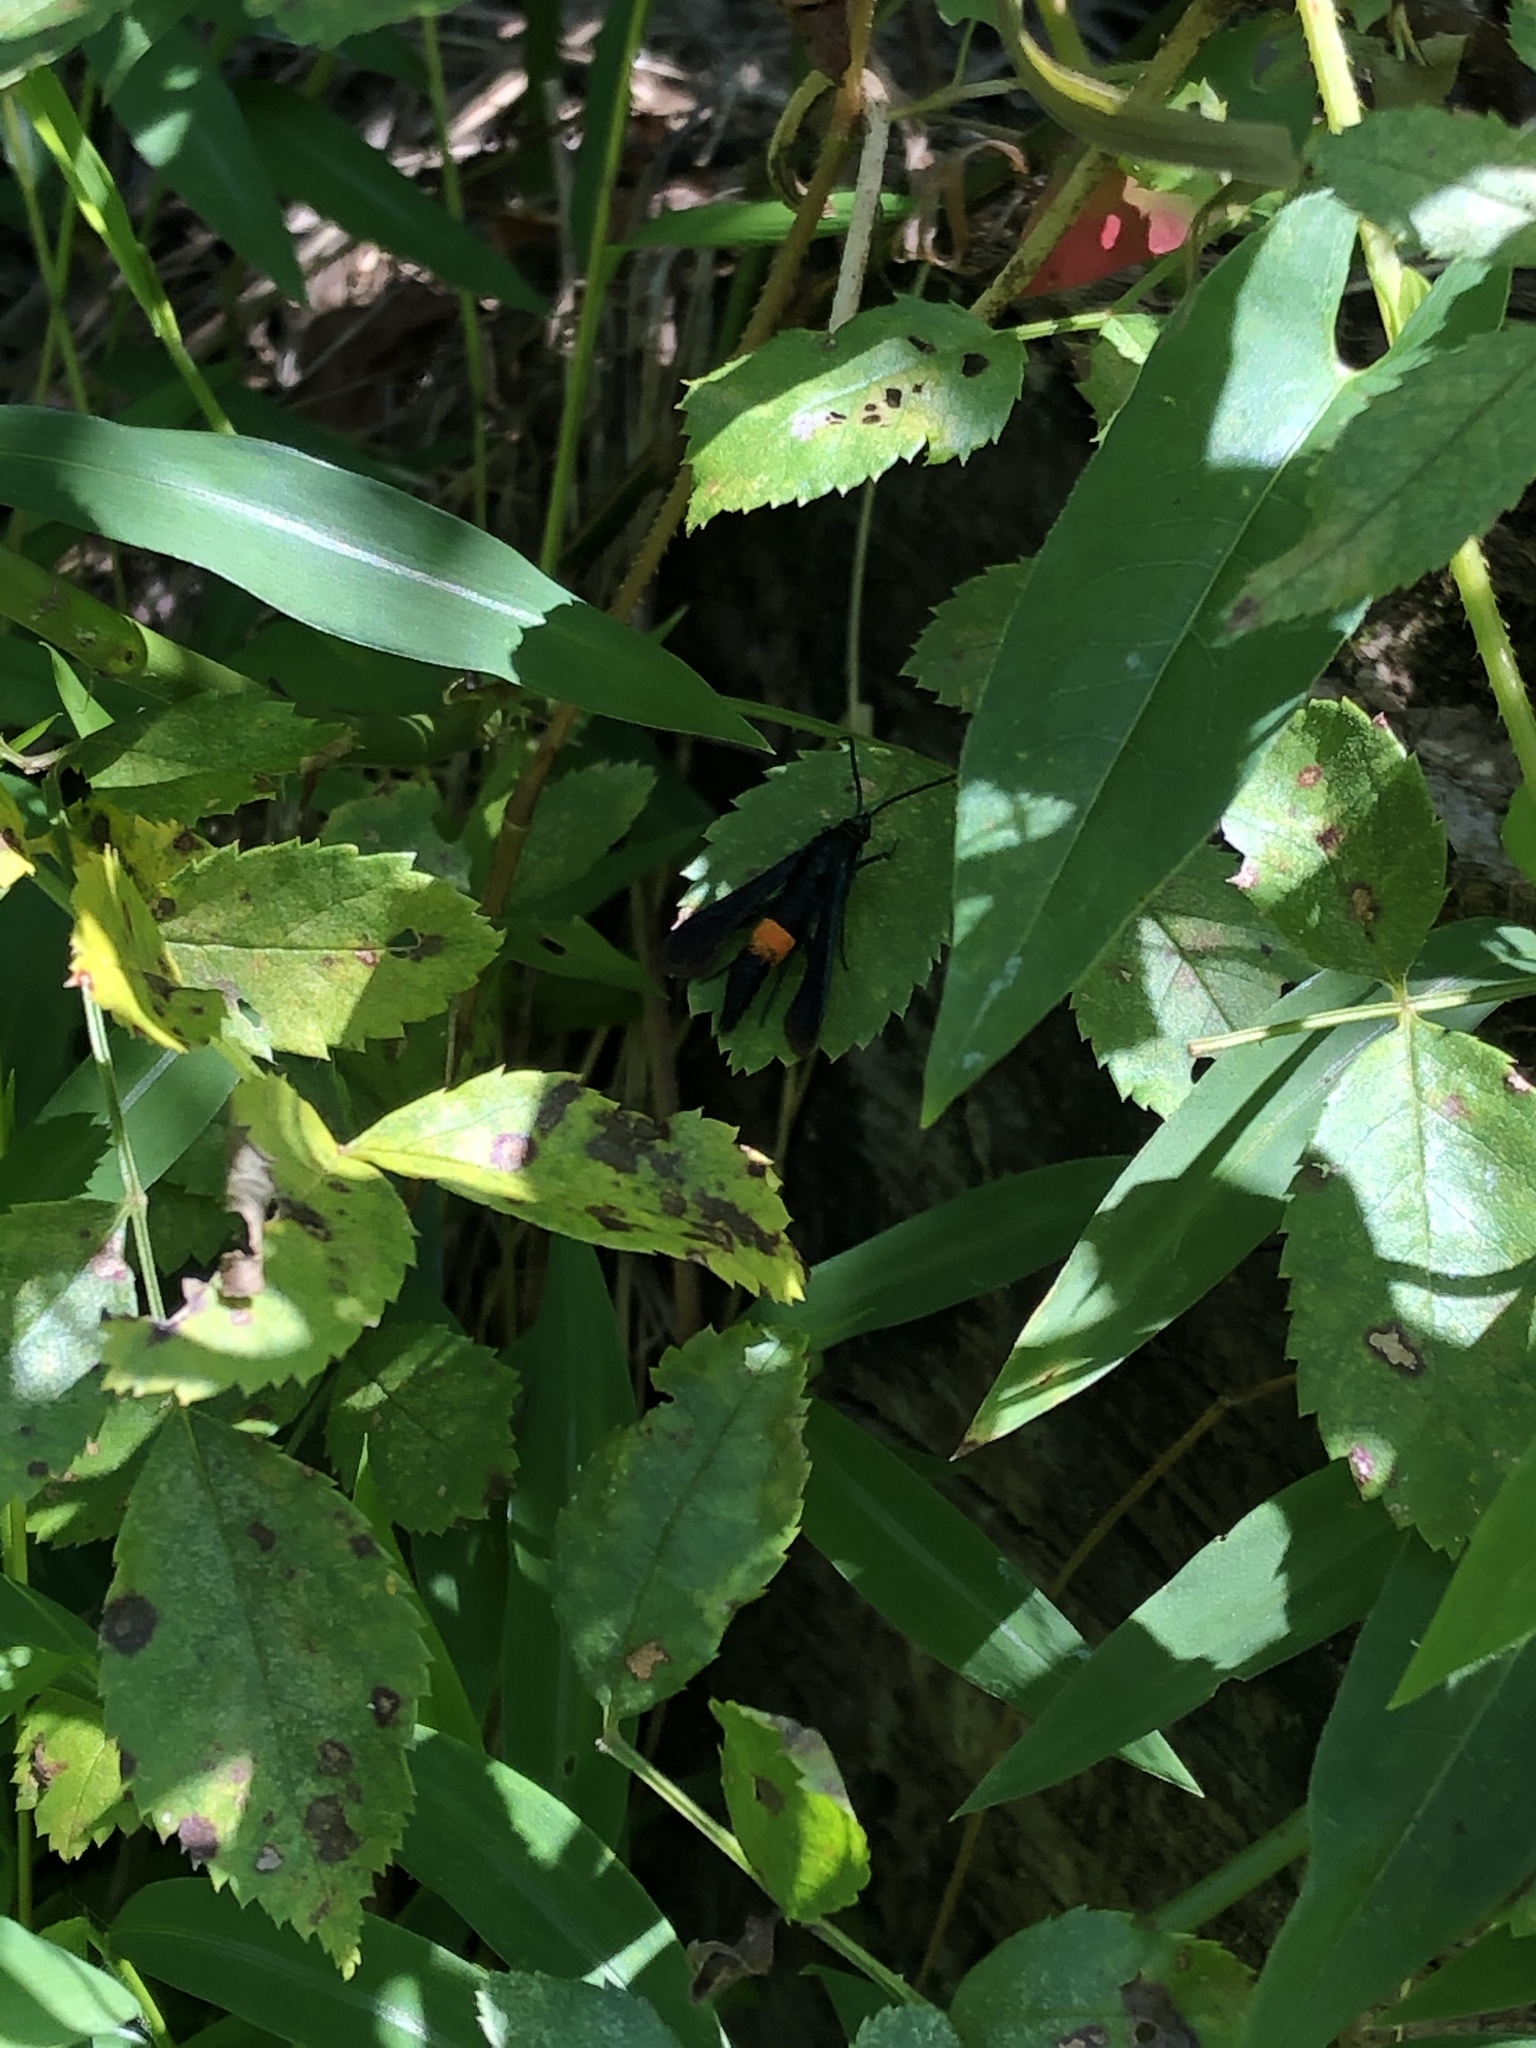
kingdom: Animalia
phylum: Arthropoda
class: Insecta
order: Lepidoptera
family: Sesiidae
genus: Synanthedon
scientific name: Synanthedon exitiosa
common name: Peachtree borer moth
